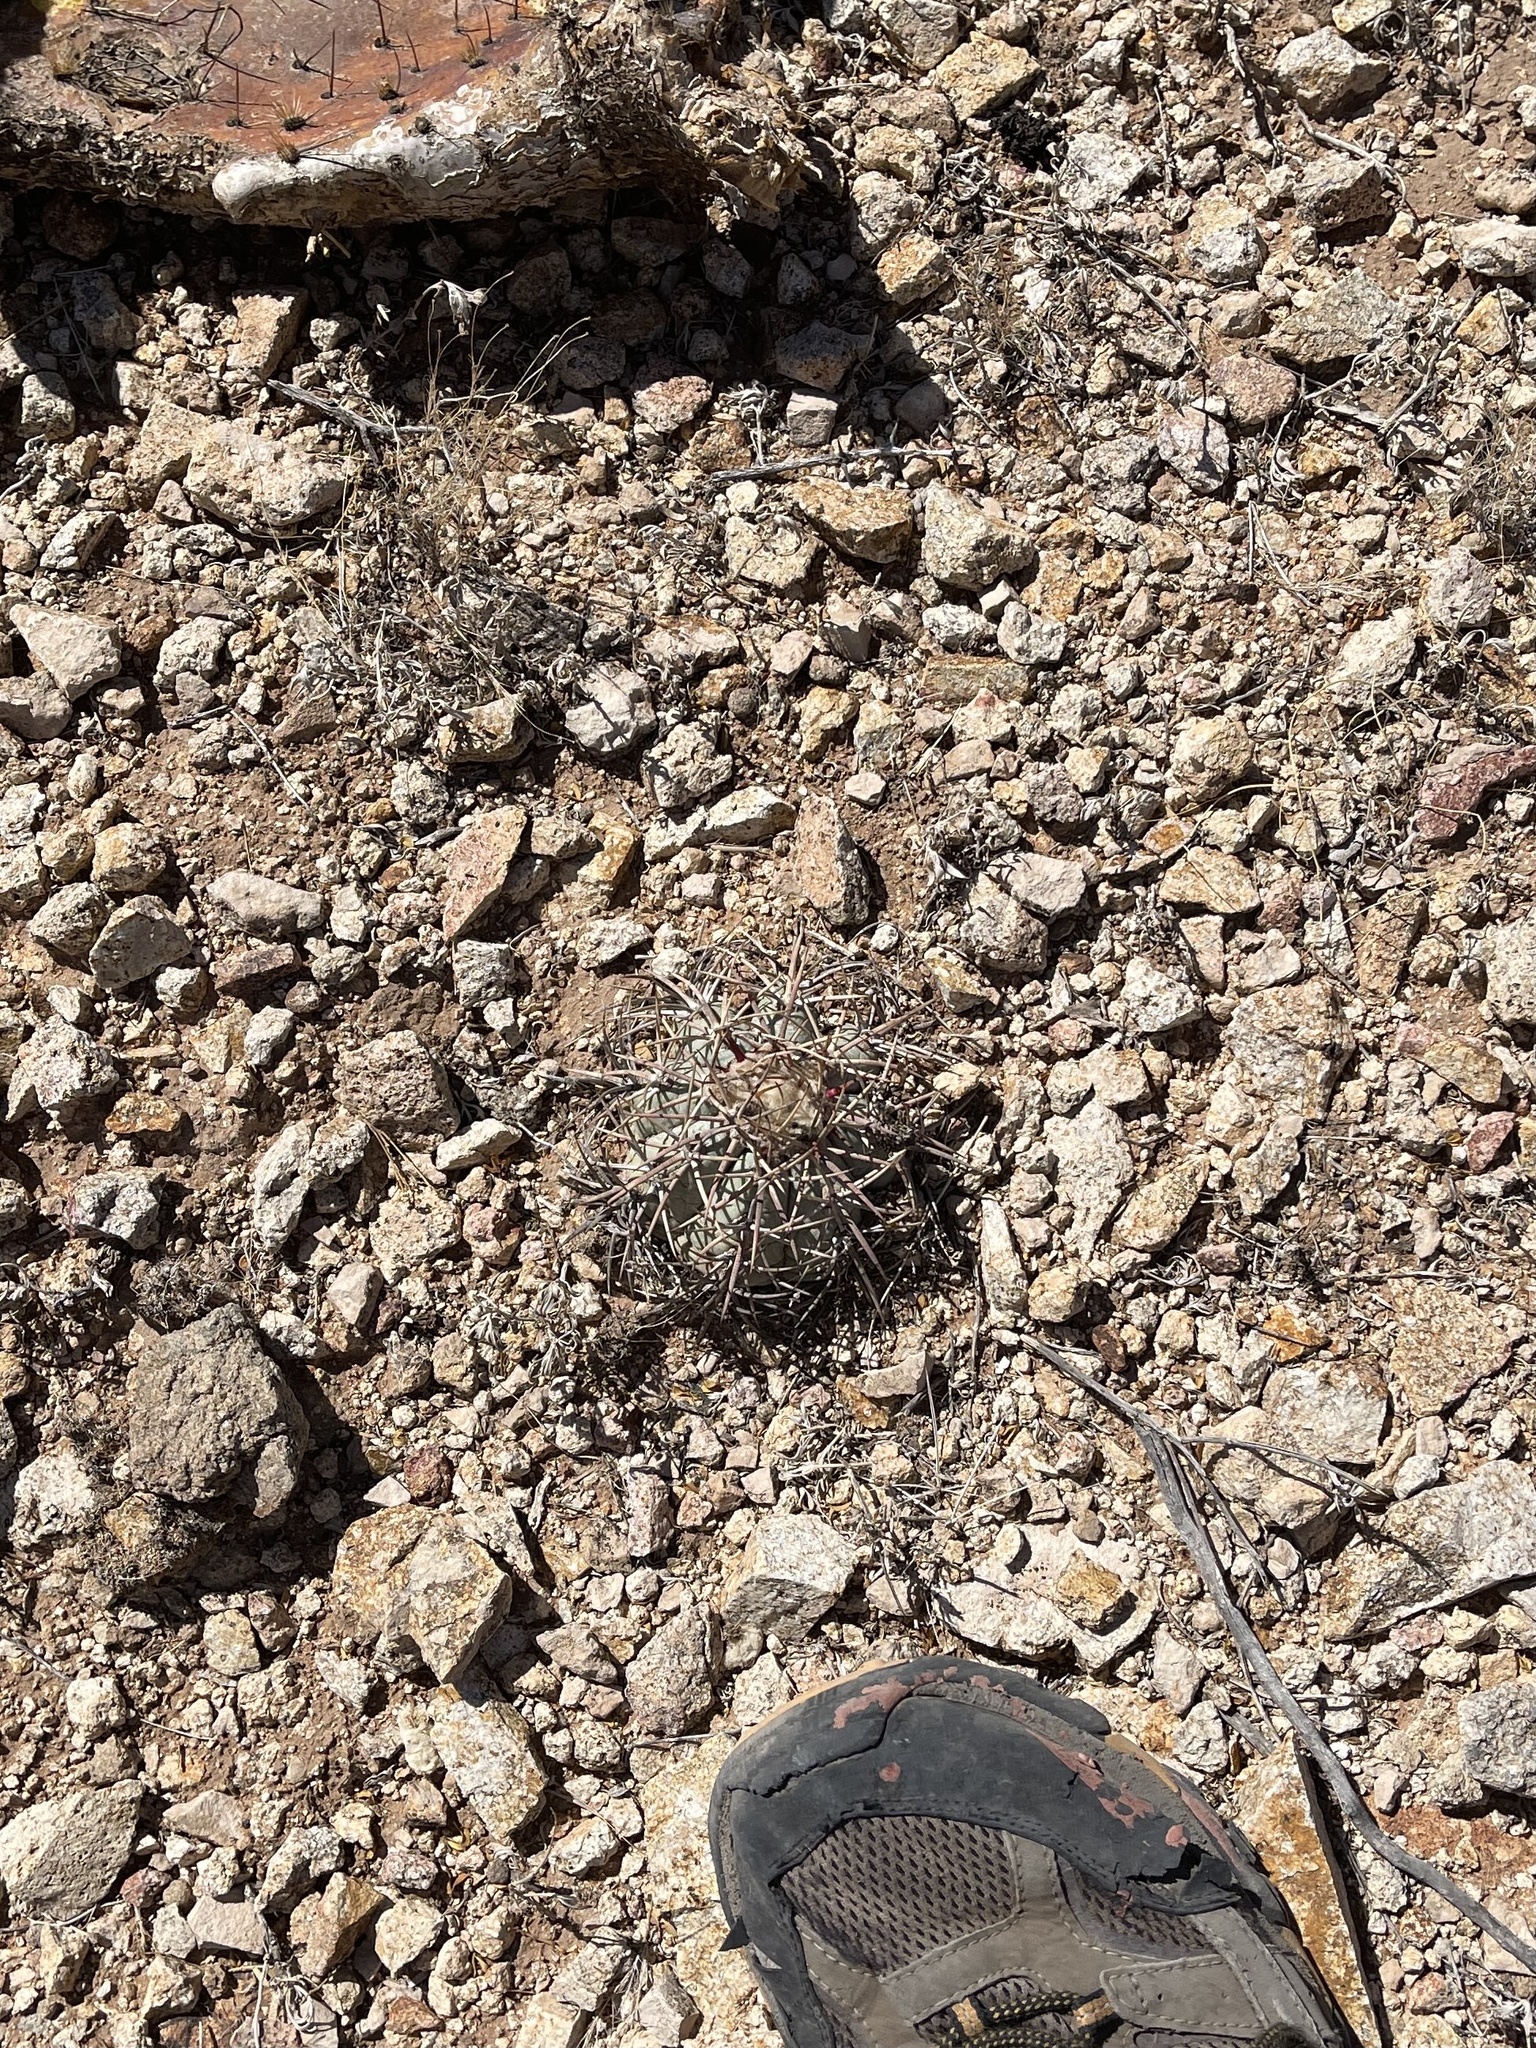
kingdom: Plantae
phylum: Tracheophyta
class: Magnoliopsida
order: Caryophyllales
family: Cactaceae
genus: Echinocactus
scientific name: Echinocactus horizonthalonius
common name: Devilshead
